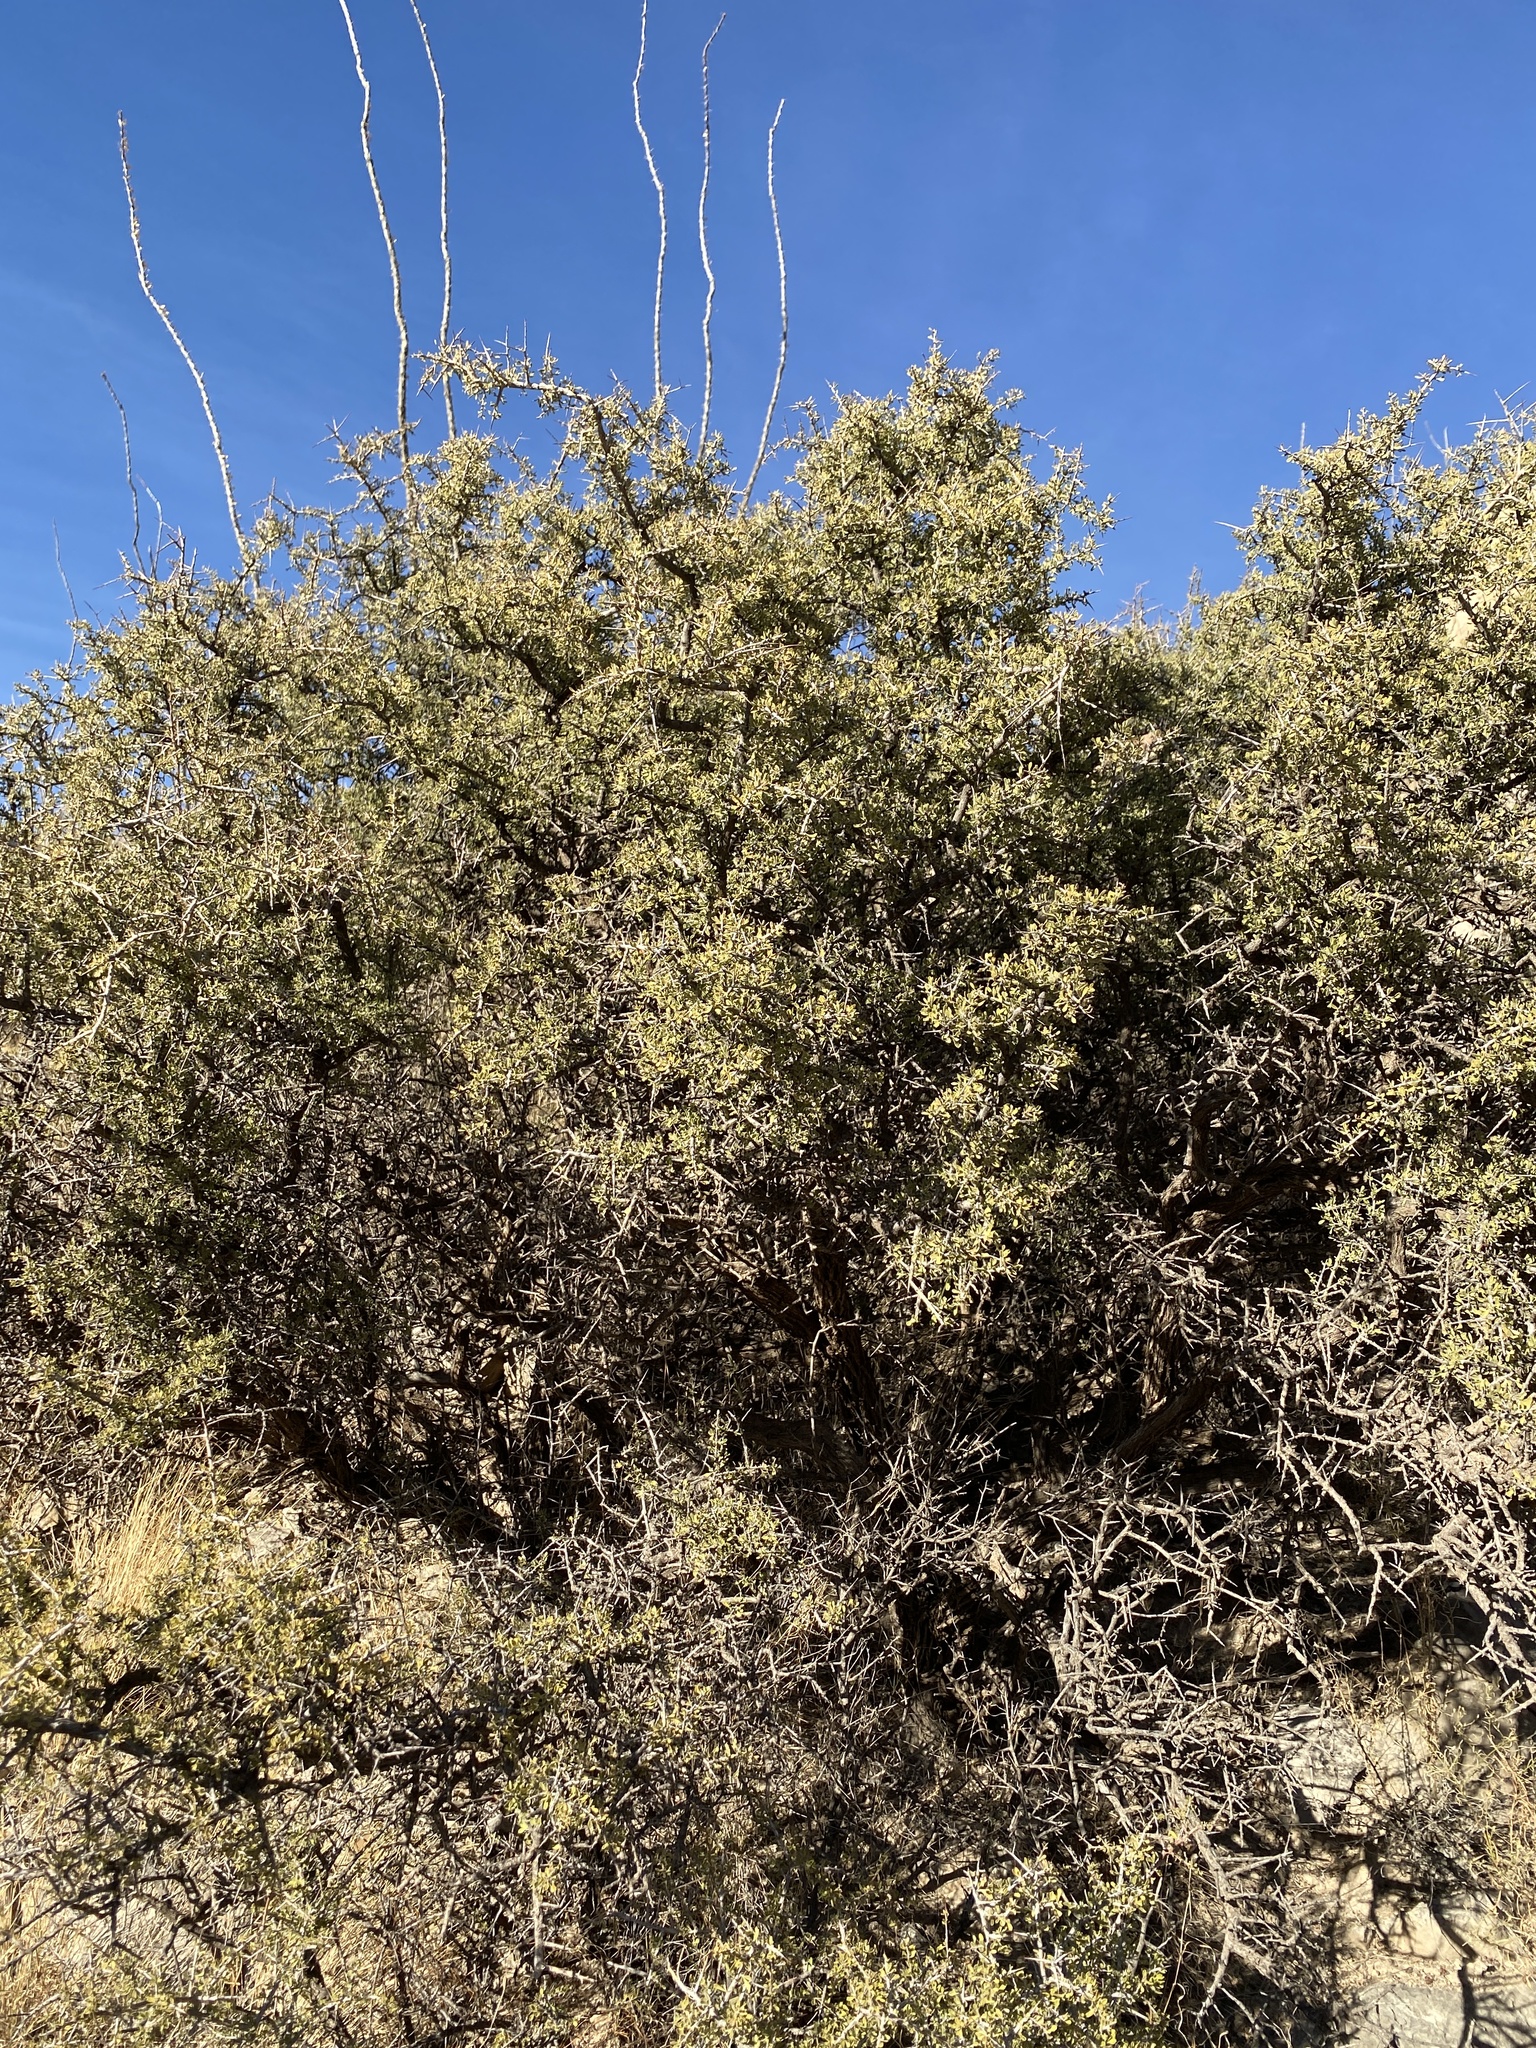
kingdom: Plantae
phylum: Tracheophyta
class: Magnoliopsida
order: Rosales
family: Rhamnaceae
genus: Condalia
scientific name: Condalia warnockii
